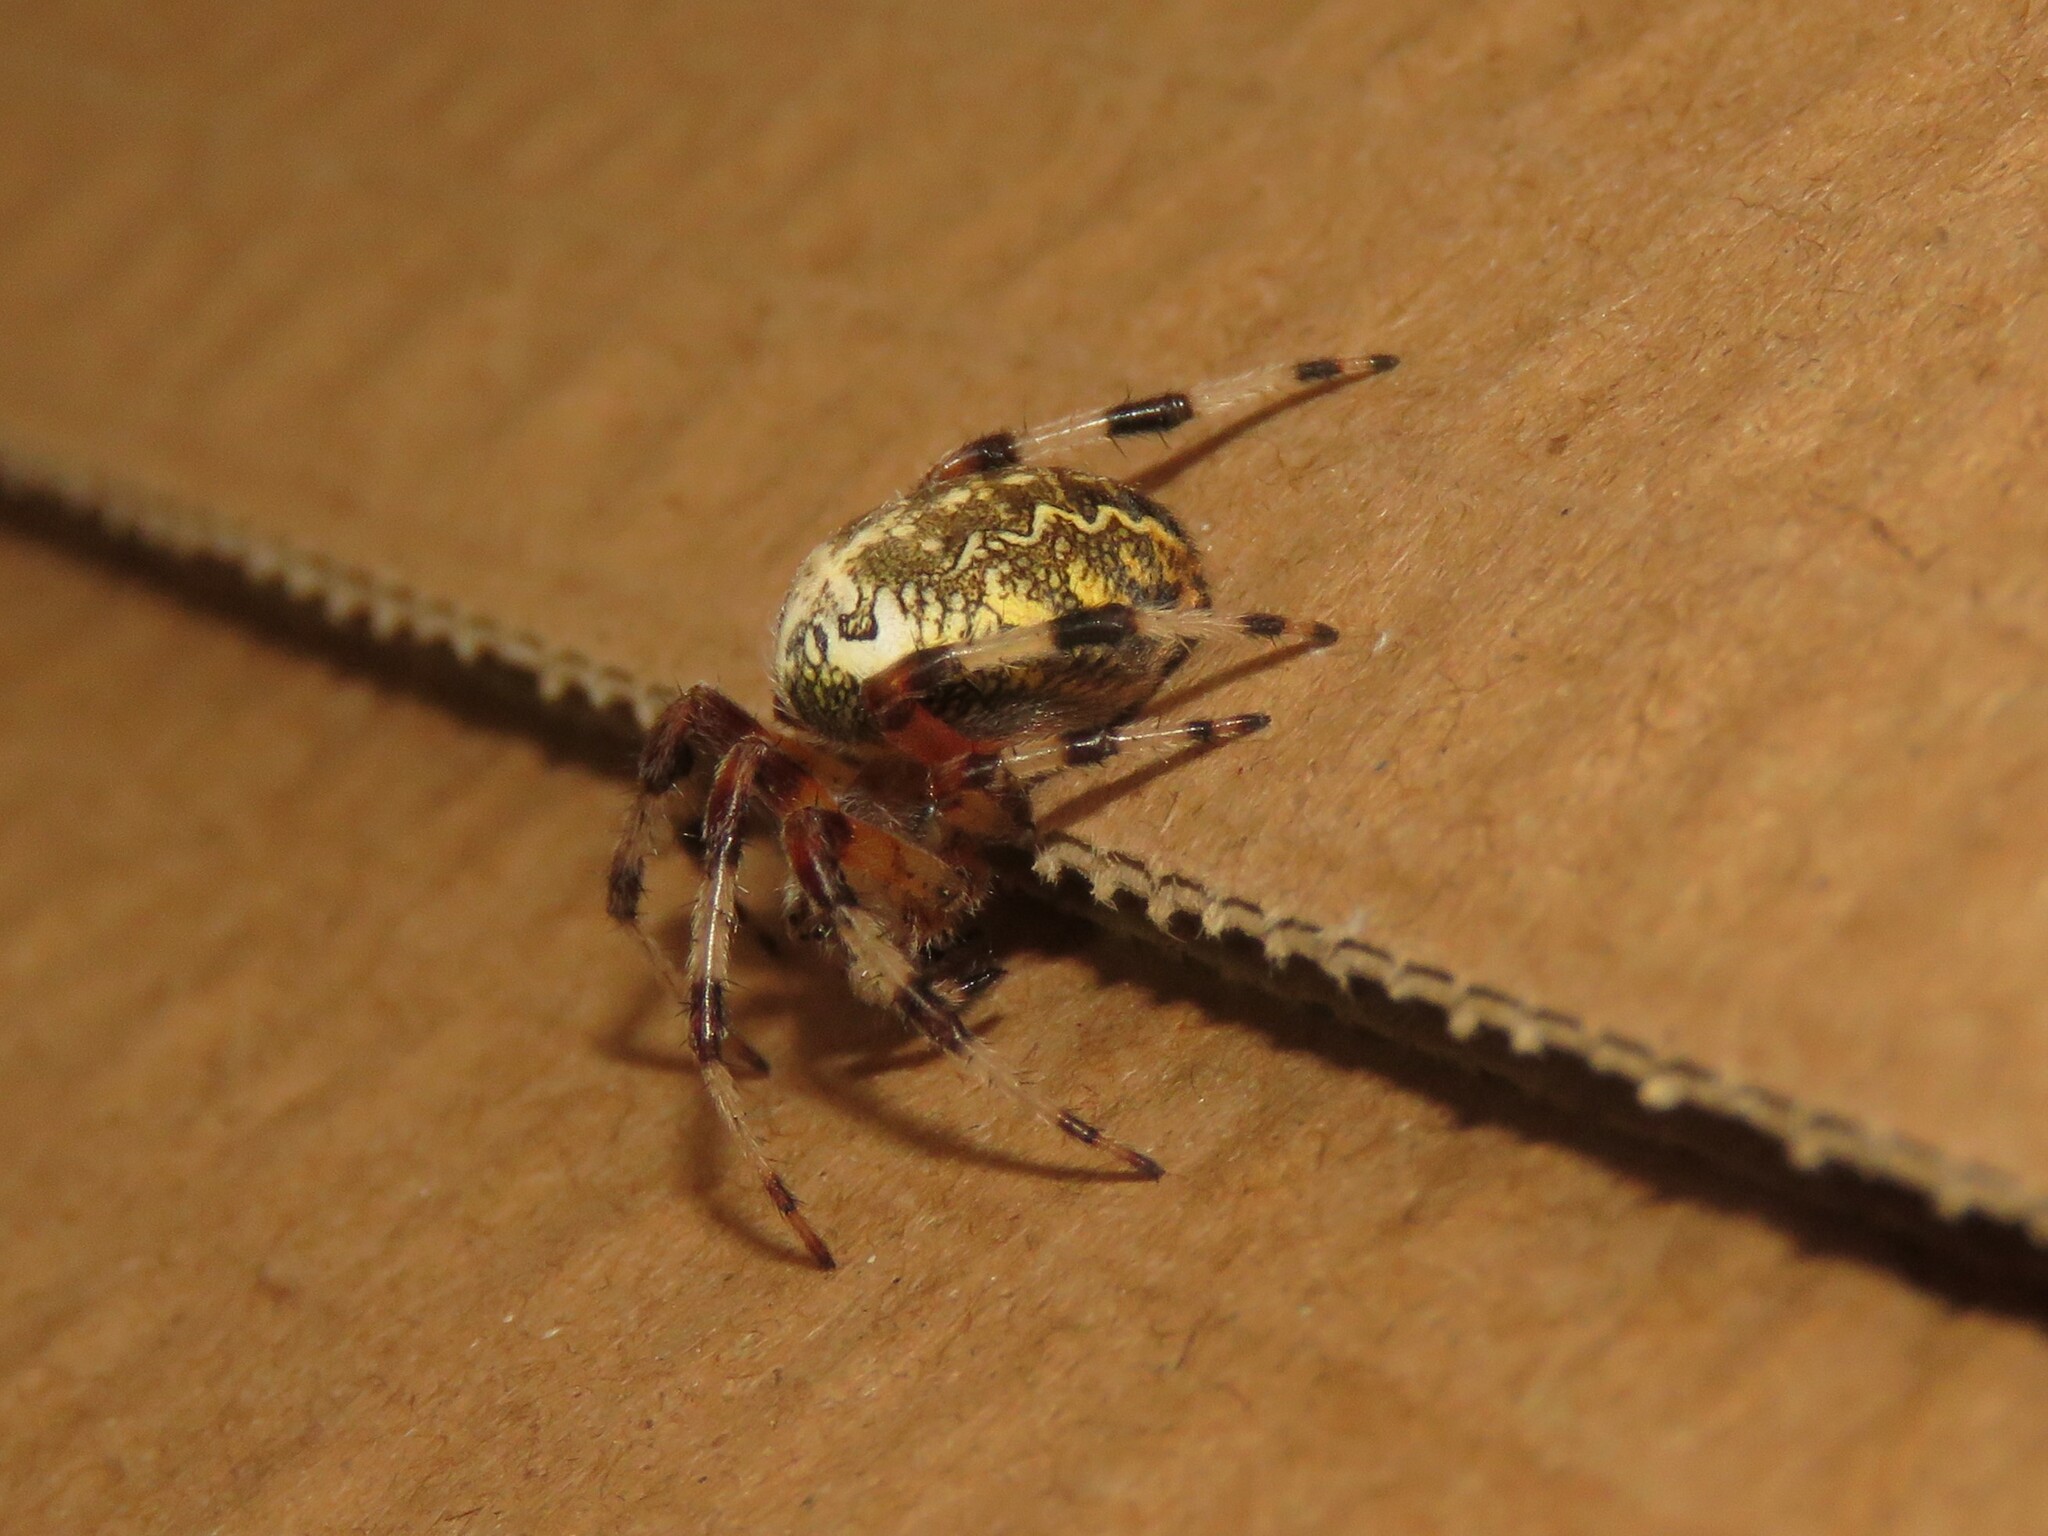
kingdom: Animalia
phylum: Arthropoda
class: Arachnida
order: Araneae
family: Araneidae
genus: Araneus
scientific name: Araneus marmoreus
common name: Marbled orbweaver
